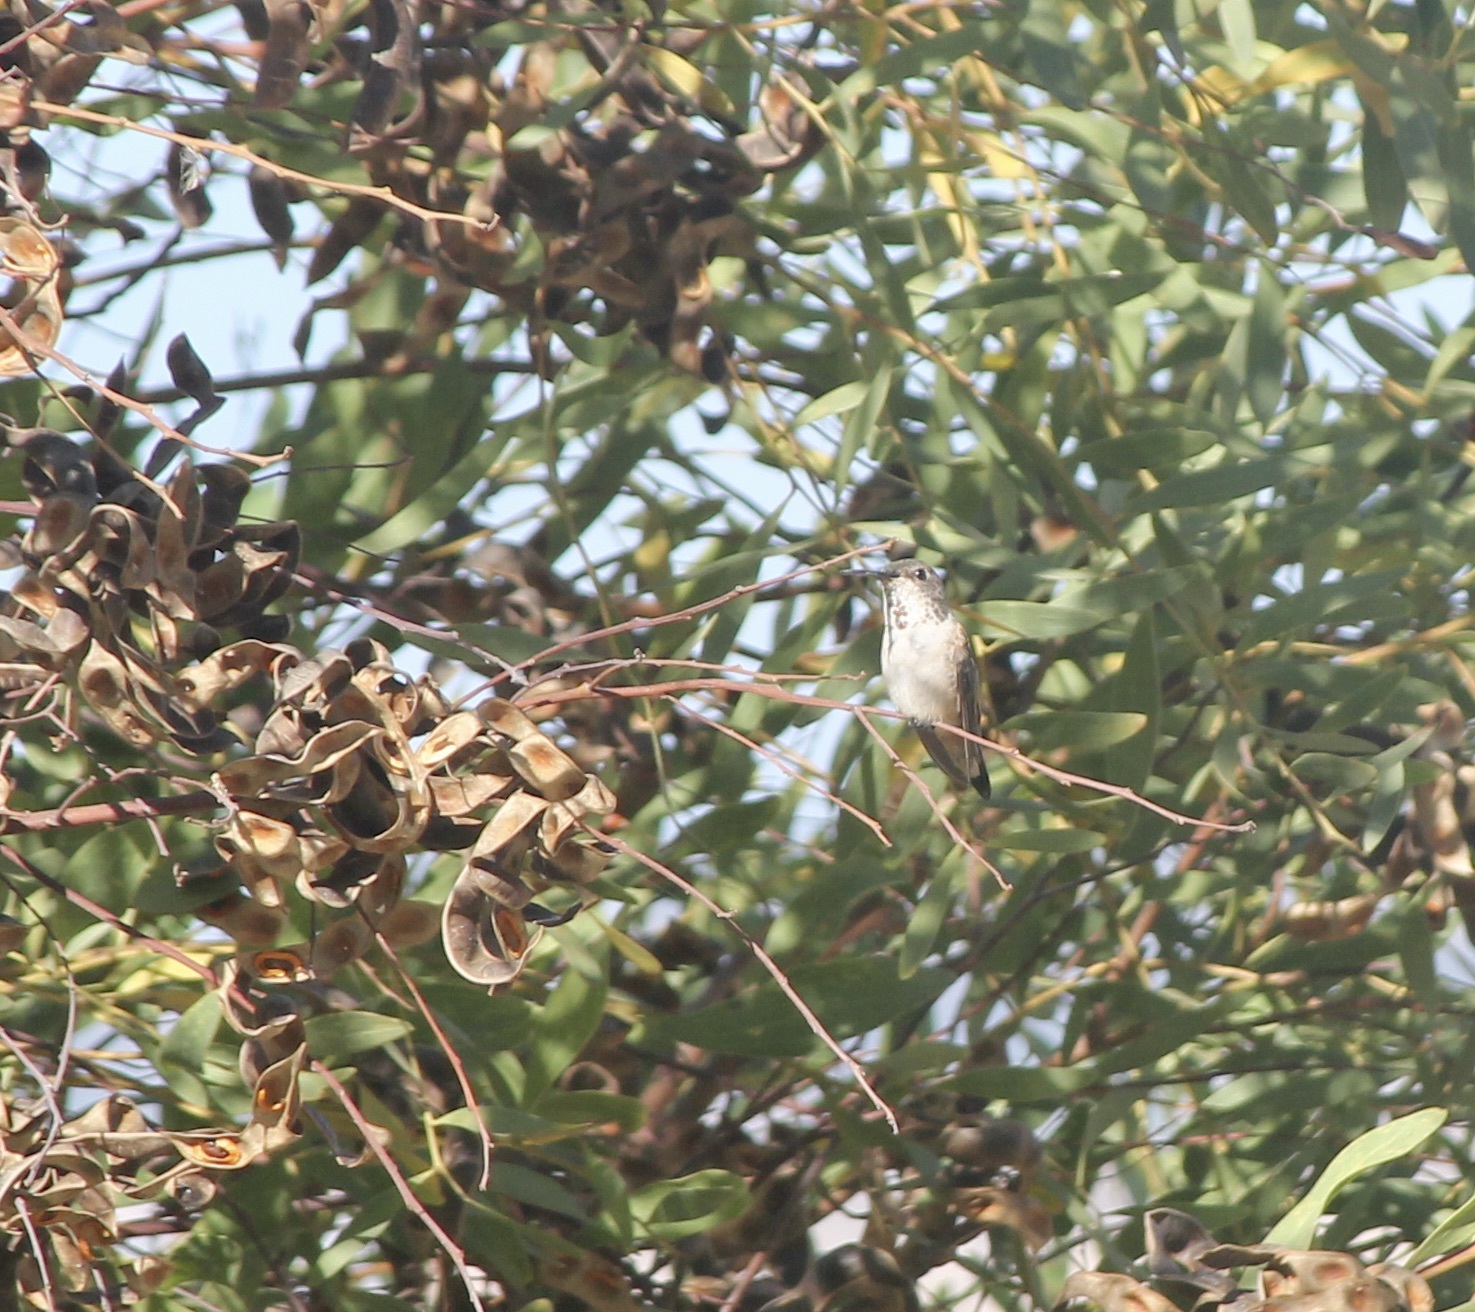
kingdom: Plantae
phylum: Tracheophyta
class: Magnoliopsida
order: Fabales
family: Fabaceae
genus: Acacia
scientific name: Acacia cyclops
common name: Coastal wattle
